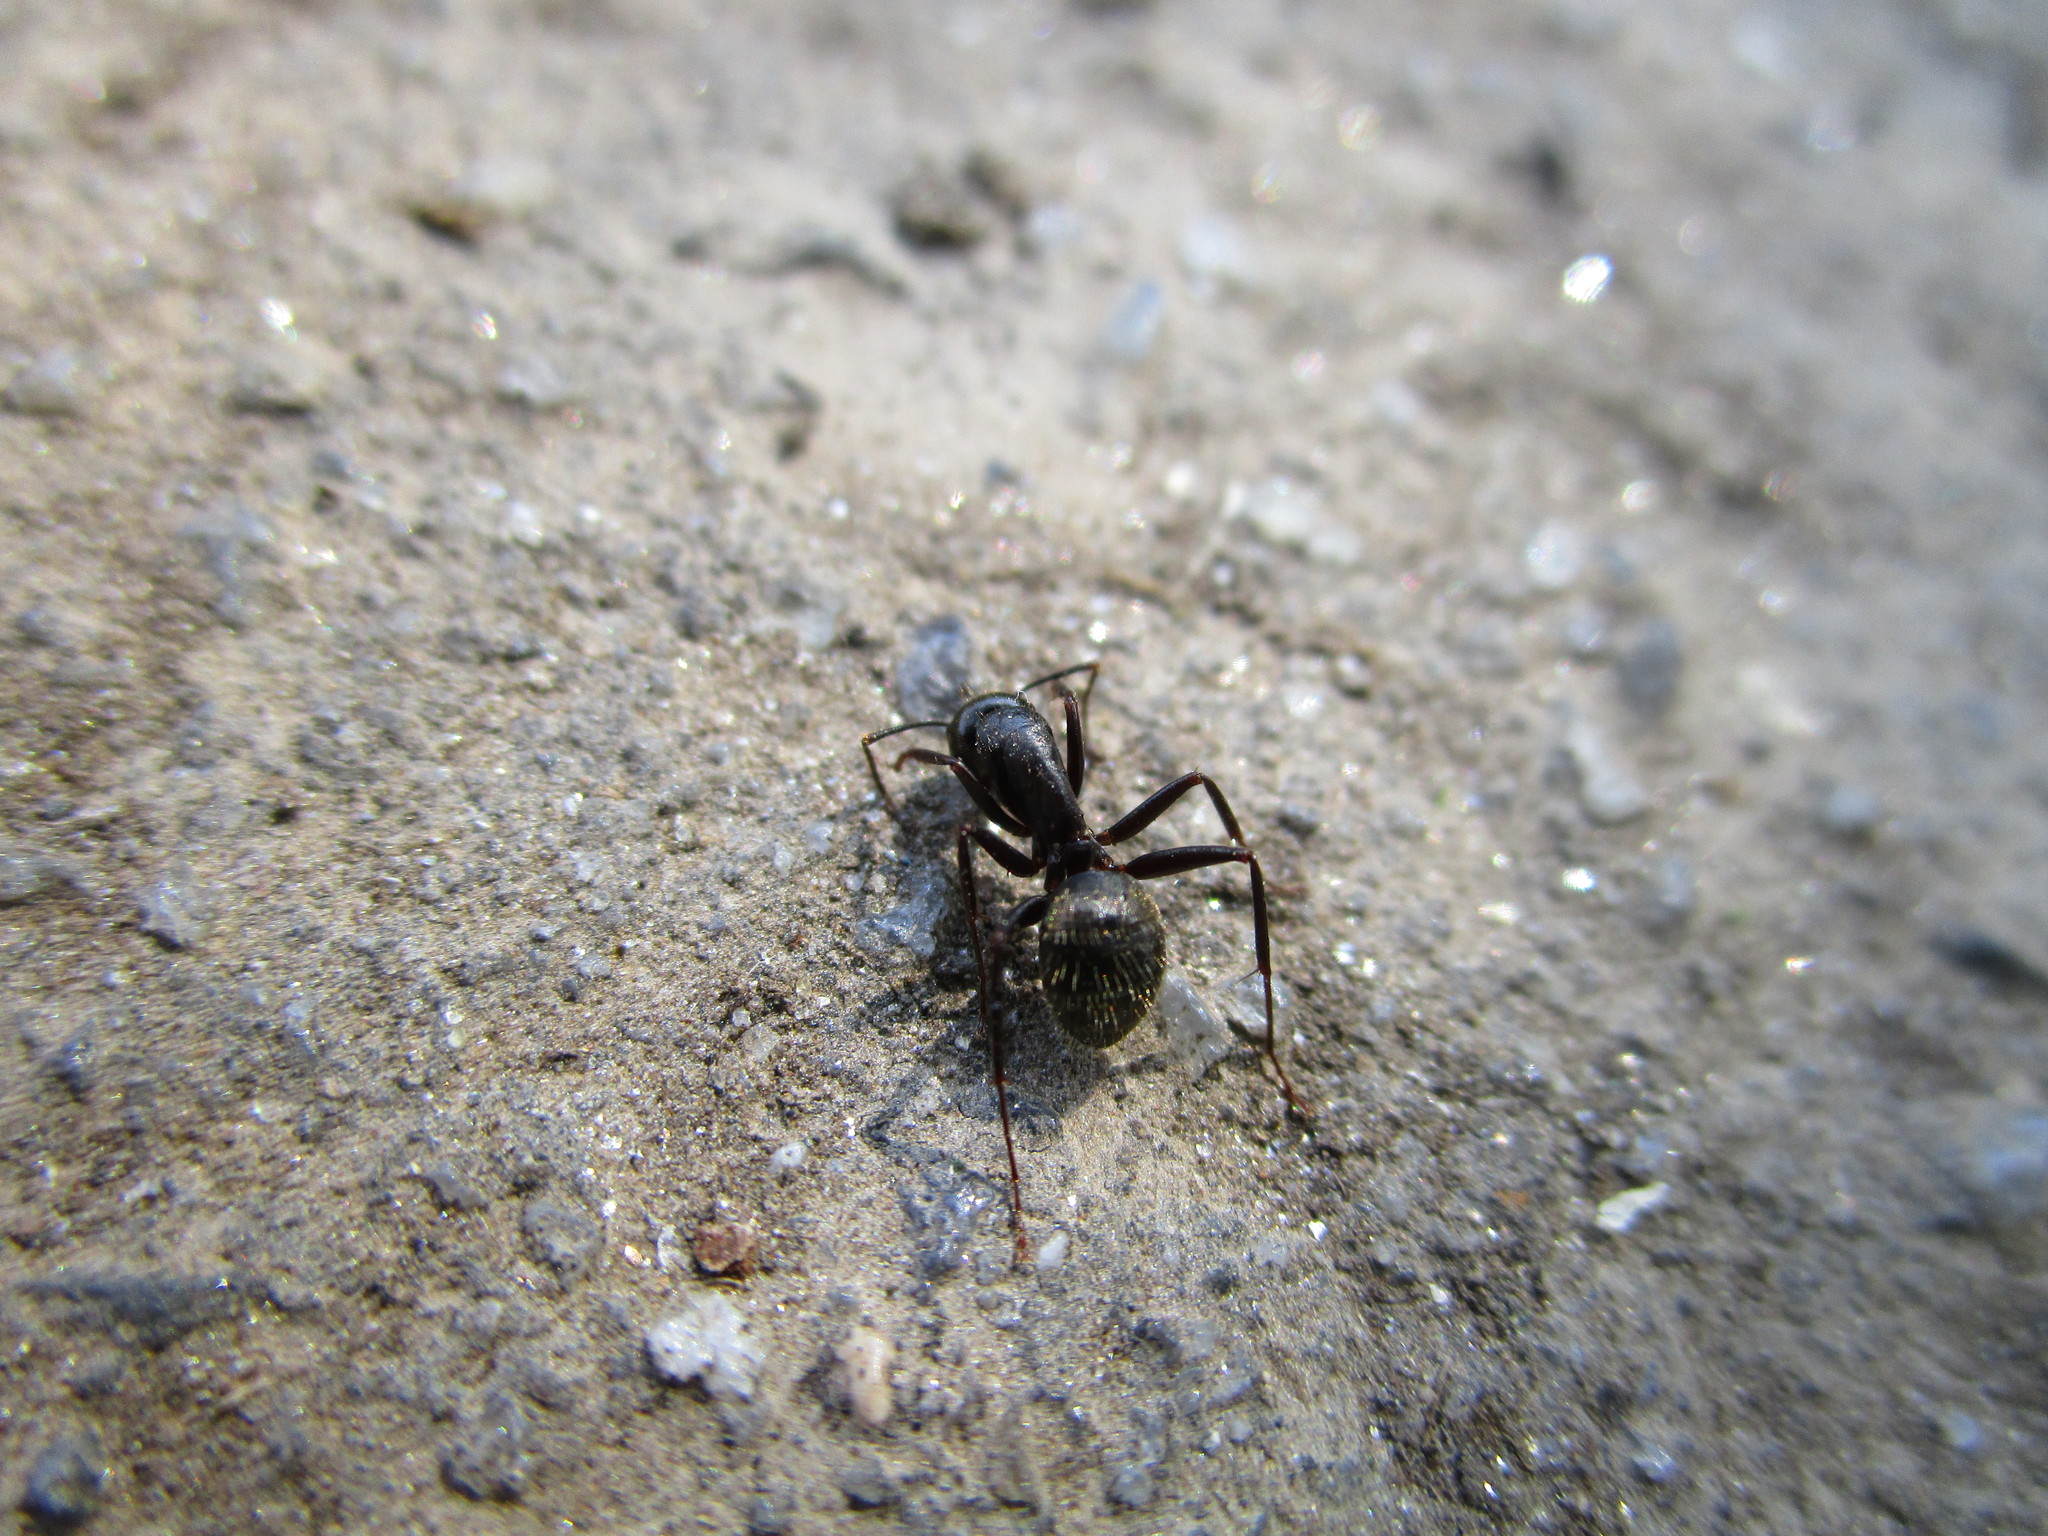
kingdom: Animalia
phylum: Arthropoda
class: Insecta
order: Hymenoptera
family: Formicidae
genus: Camponotus
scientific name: Camponotus pennsylvanicus
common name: Black carpenter ant
